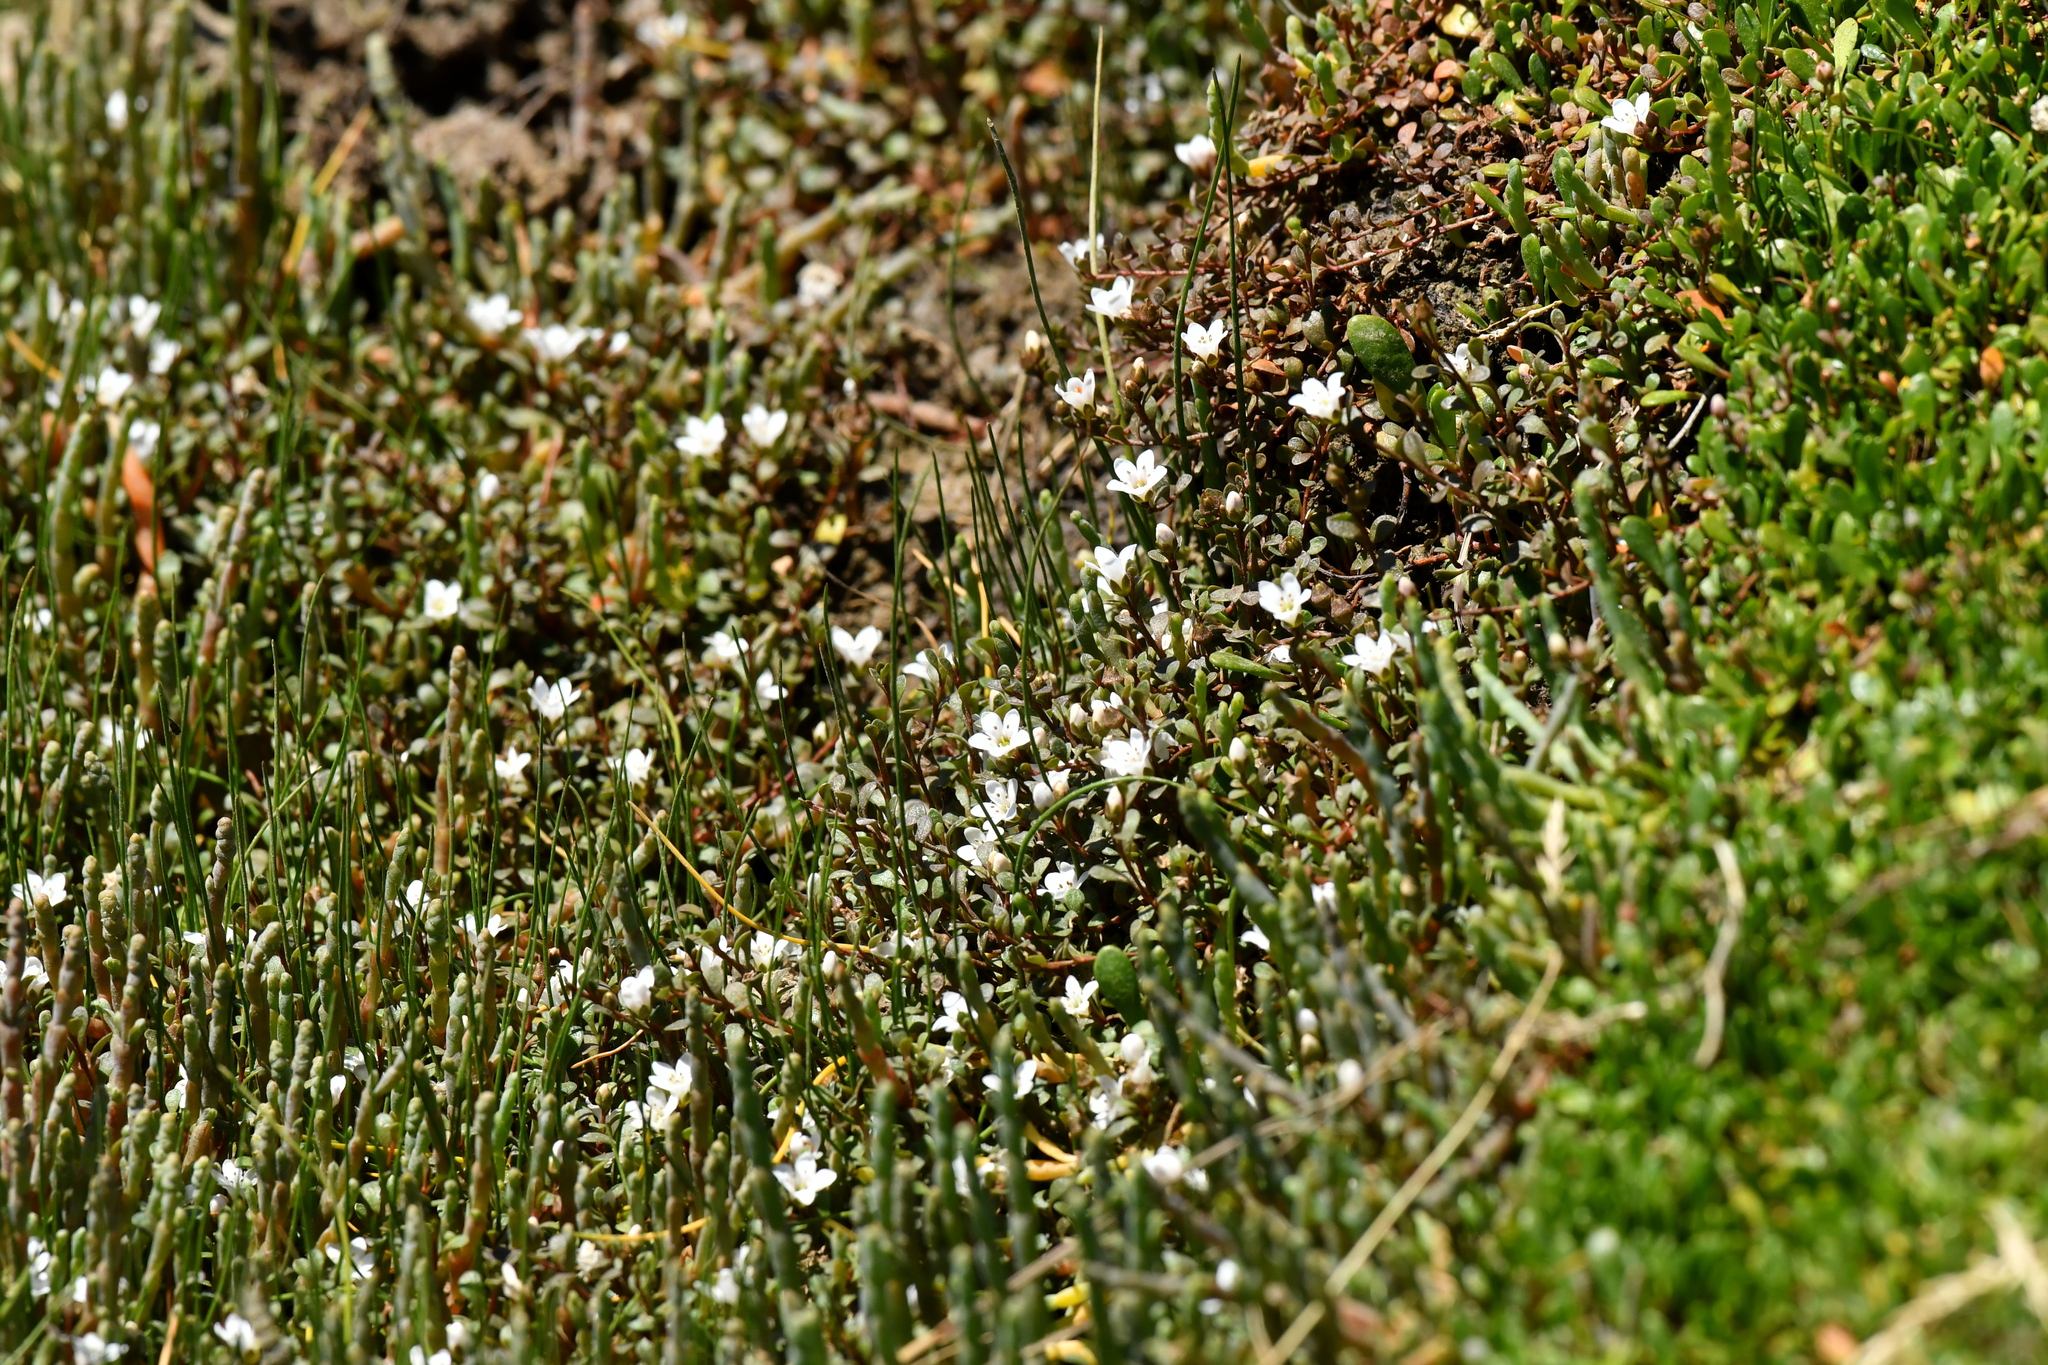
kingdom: Plantae
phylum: Tracheophyta
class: Magnoliopsida
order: Ericales
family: Primulaceae
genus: Samolus
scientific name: Samolus repens
